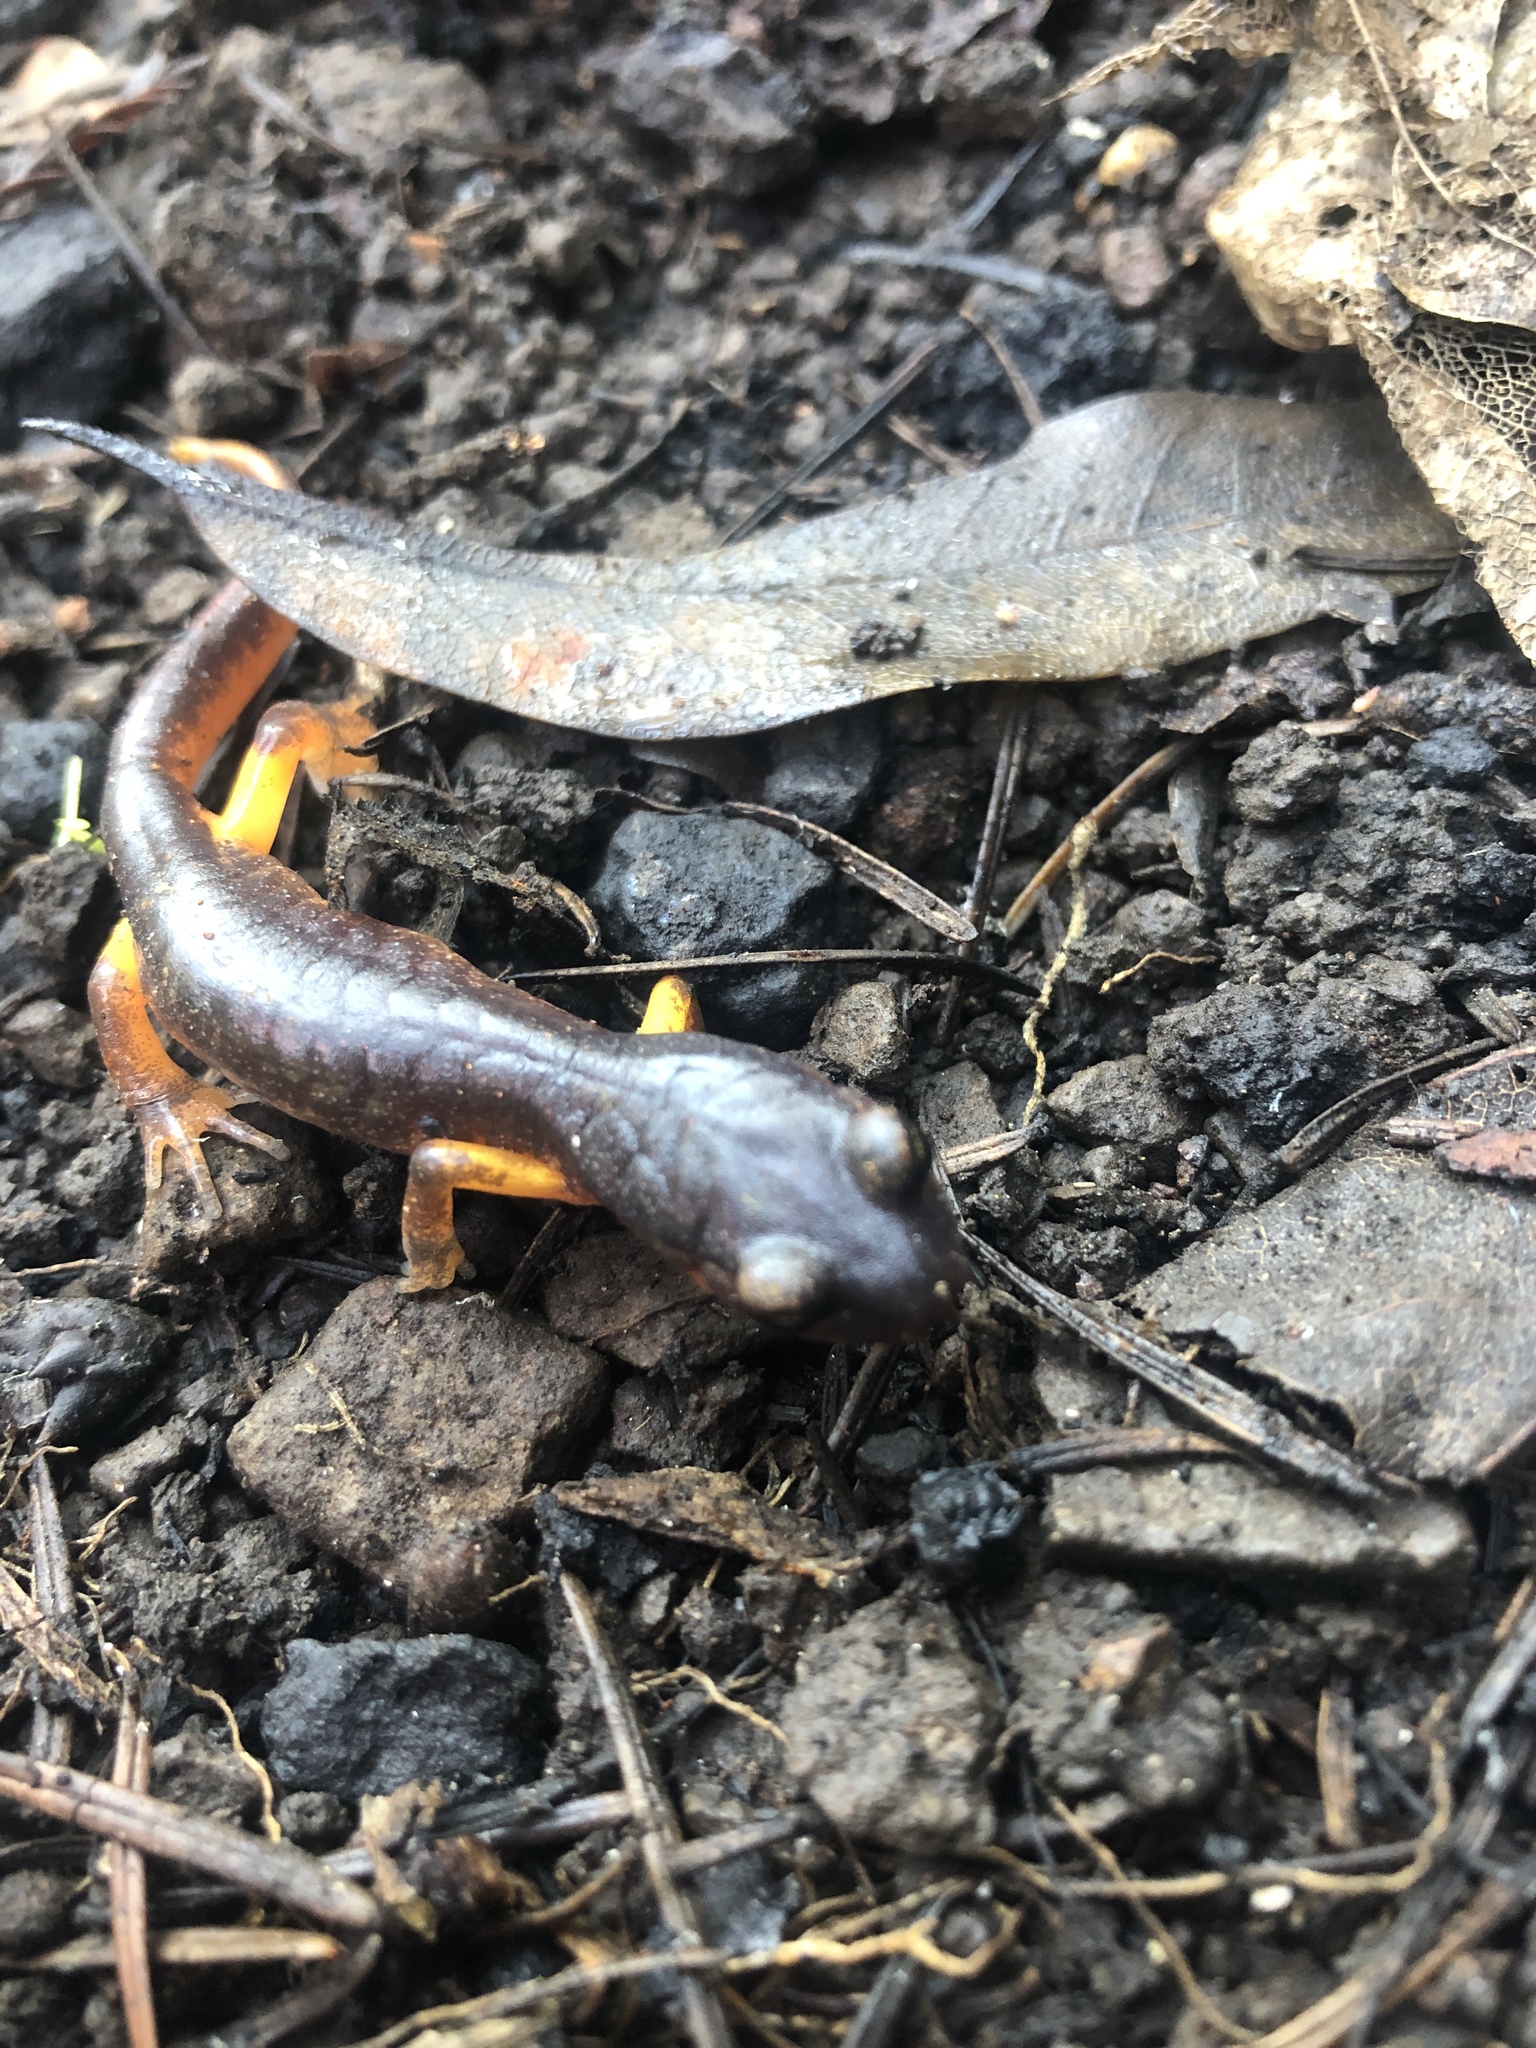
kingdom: Animalia
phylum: Chordata
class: Amphibia
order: Caudata
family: Plethodontidae
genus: Ensatina
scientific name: Ensatina eschscholtzii
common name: Ensatina
